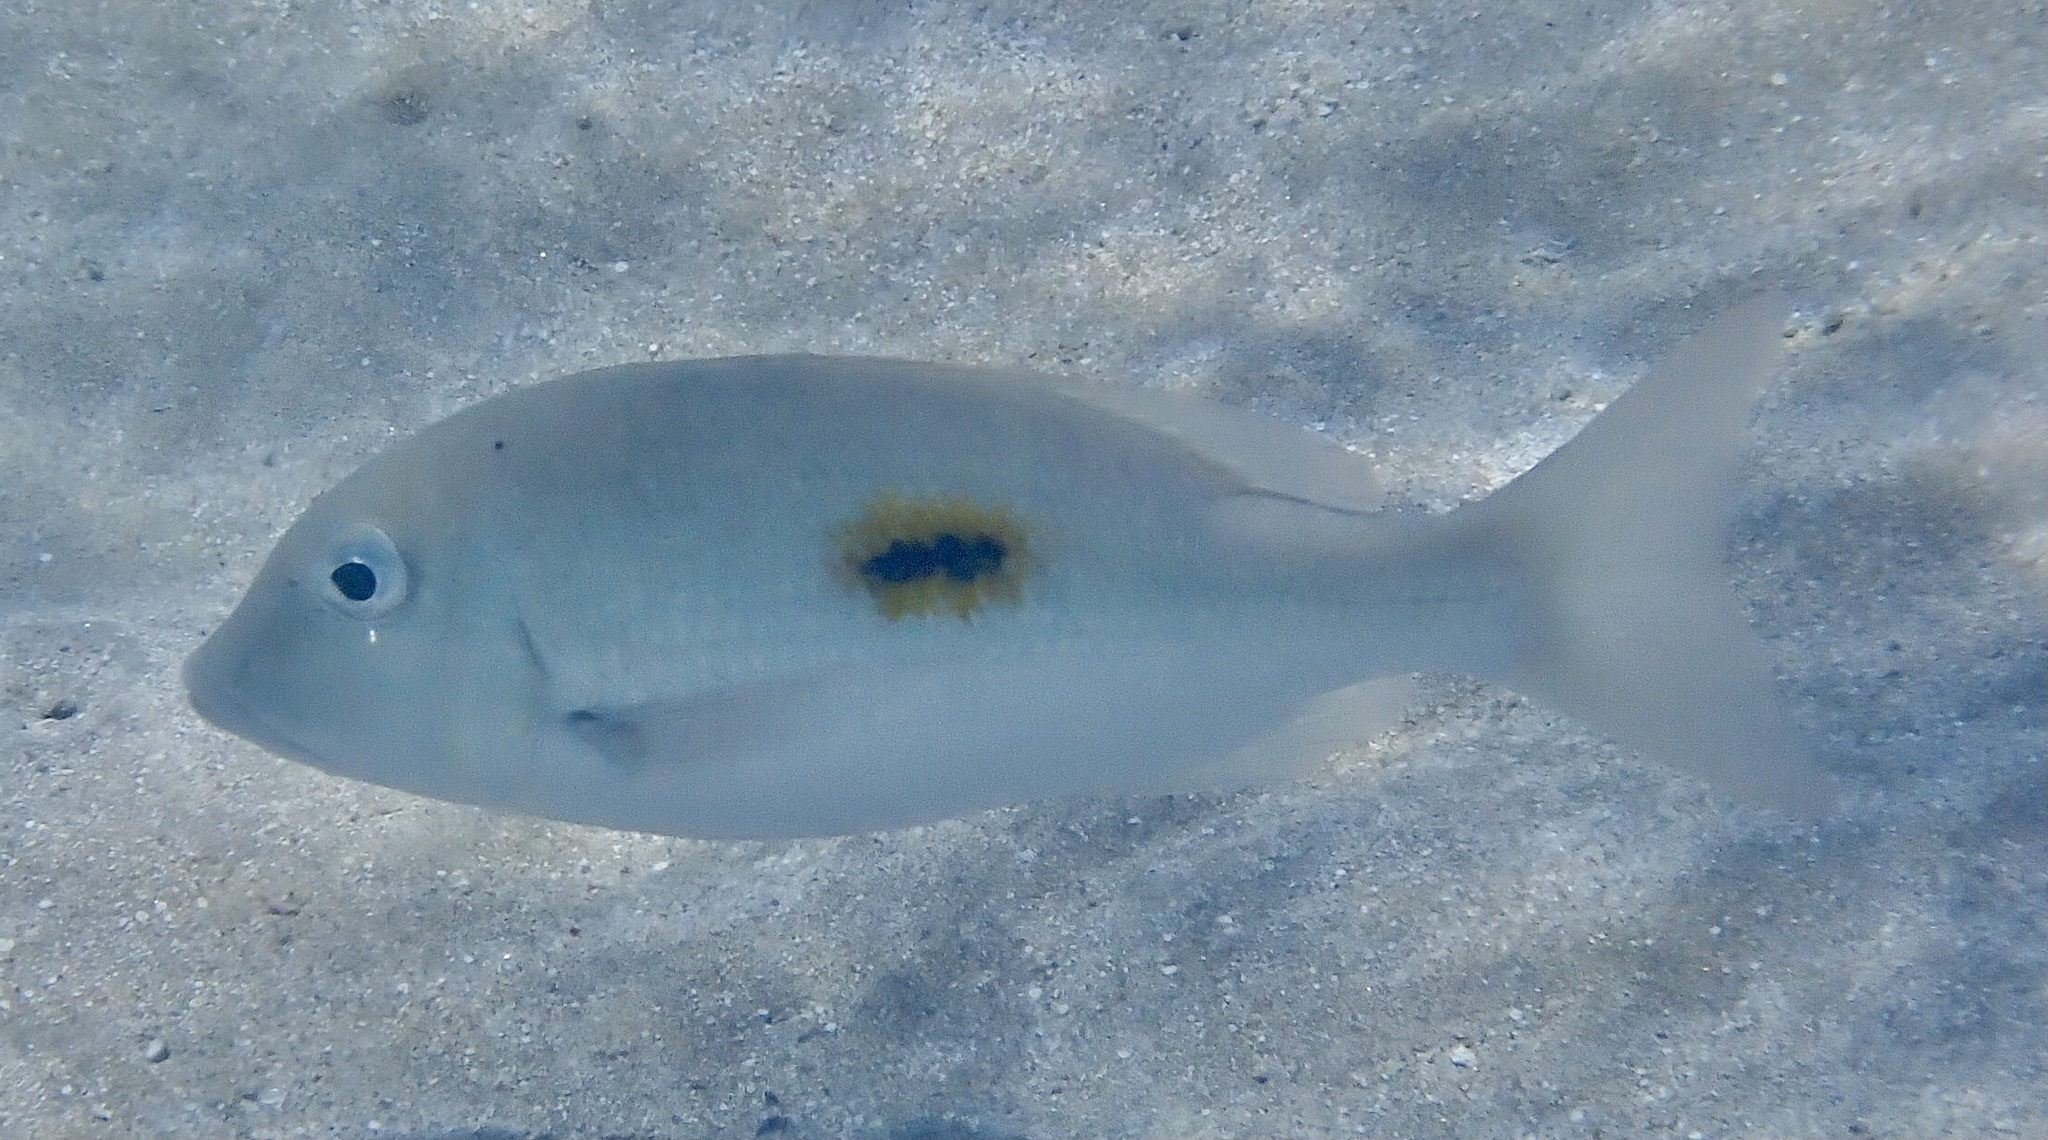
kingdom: Animalia
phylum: Chordata
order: Perciformes
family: Lethrinidae
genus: Lethrinus
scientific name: Lethrinus harak
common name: Blackspot emperor
